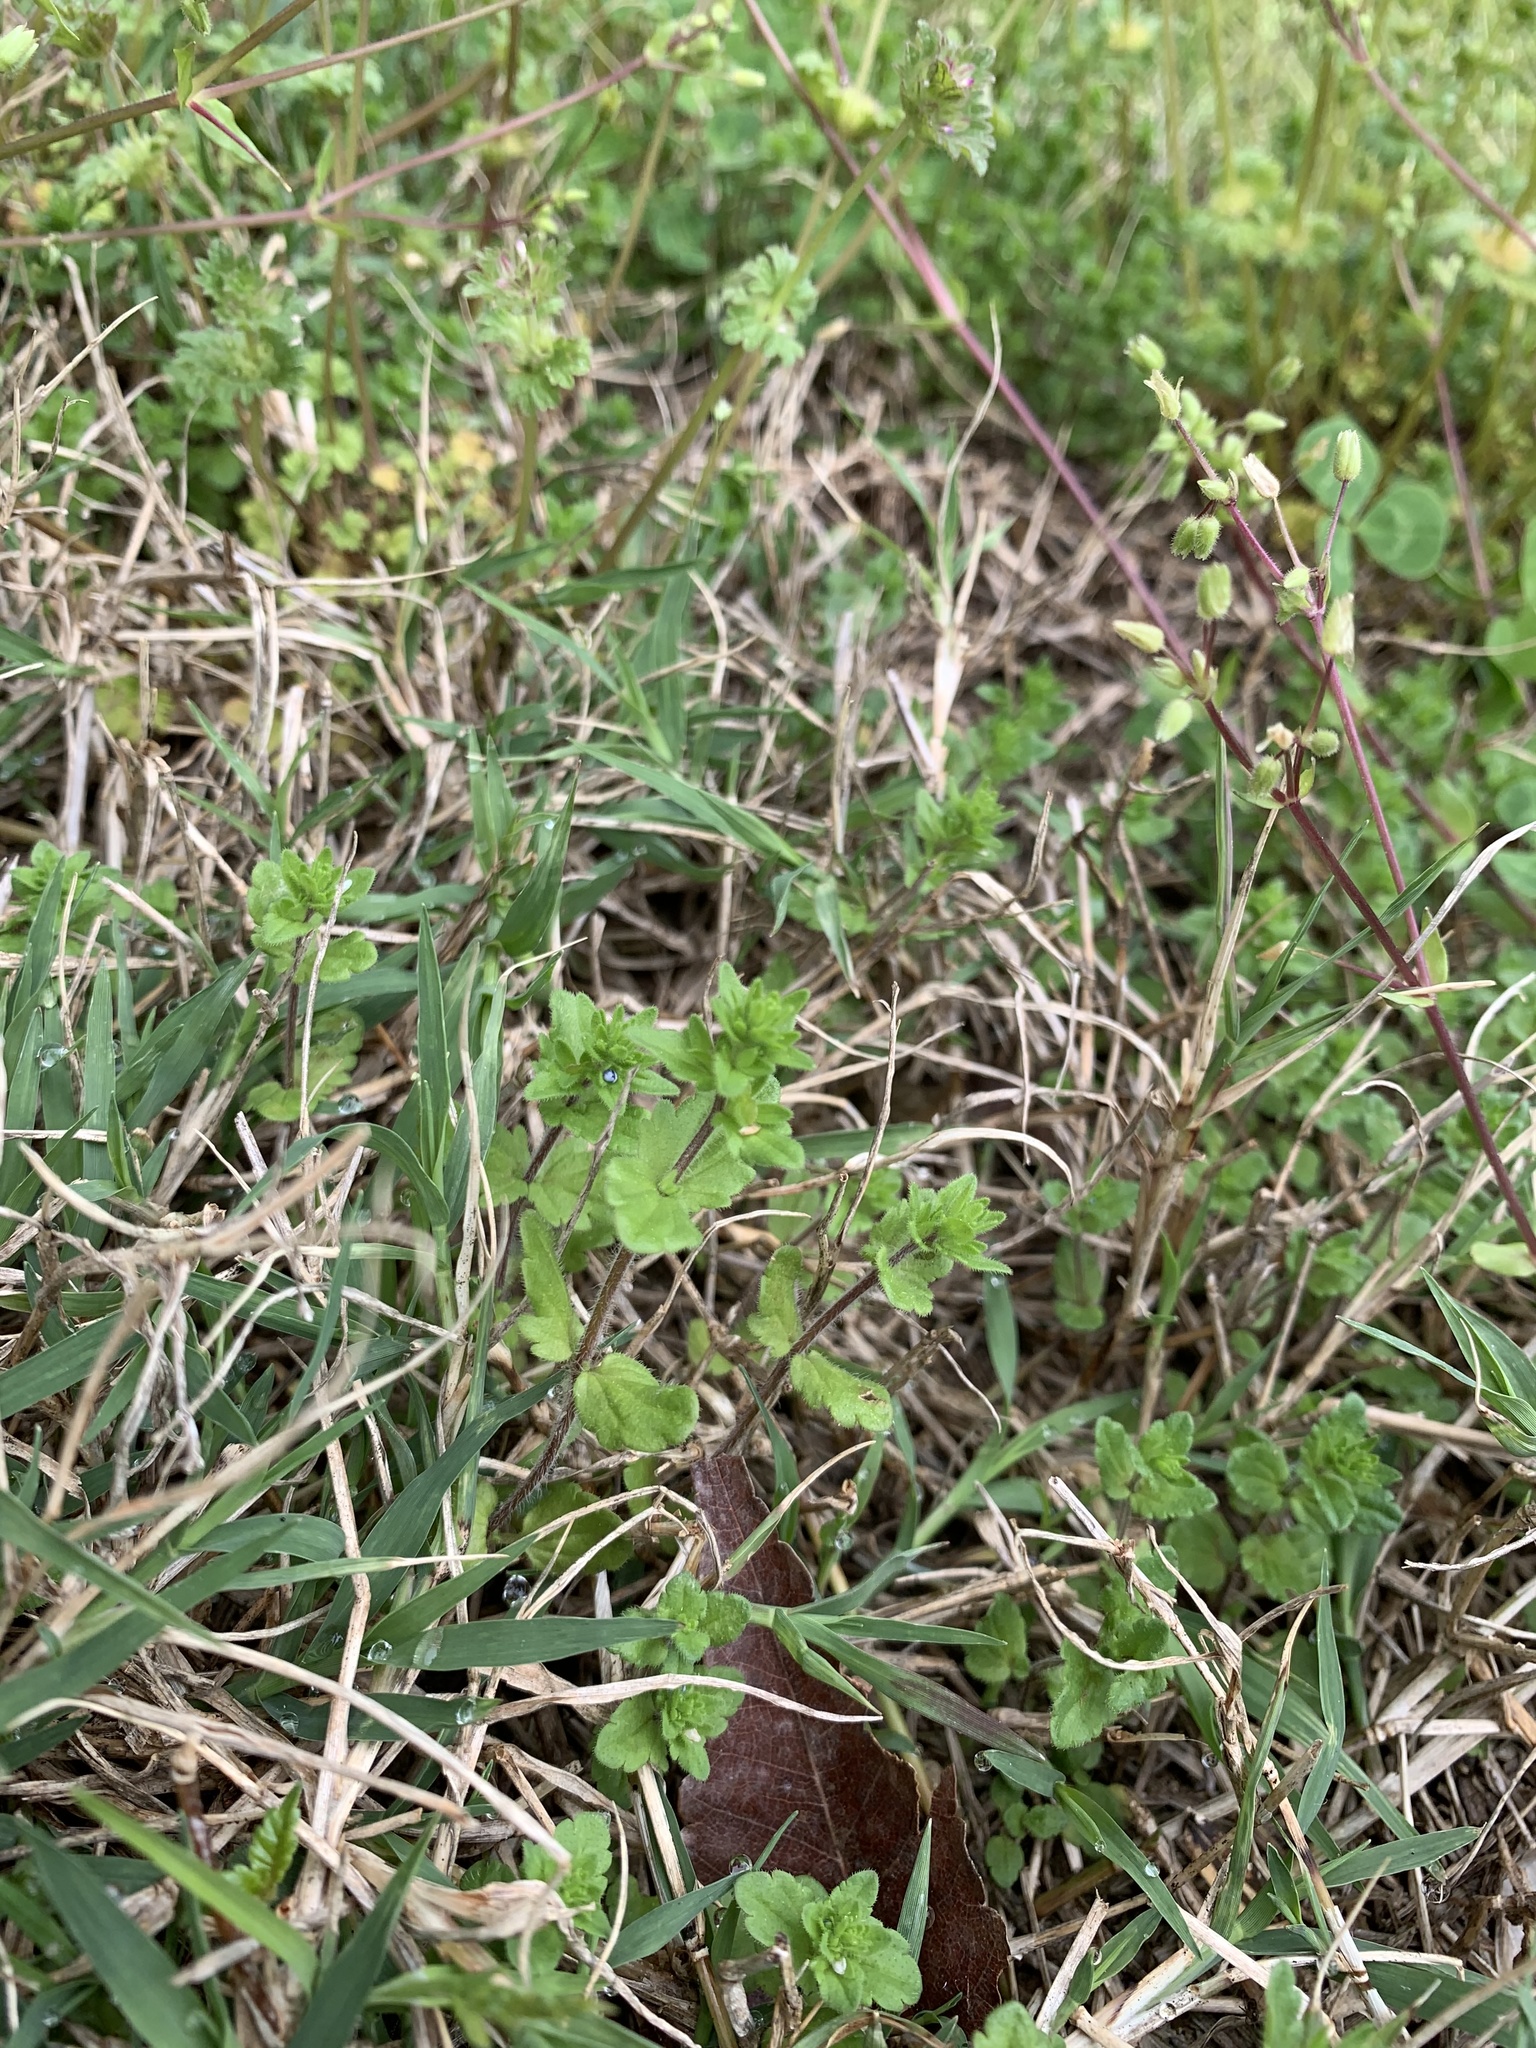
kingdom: Plantae
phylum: Tracheophyta
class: Magnoliopsida
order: Lamiales
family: Plantaginaceae
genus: Veronica
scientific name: Veronica arvensis
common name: Corn speedwell
